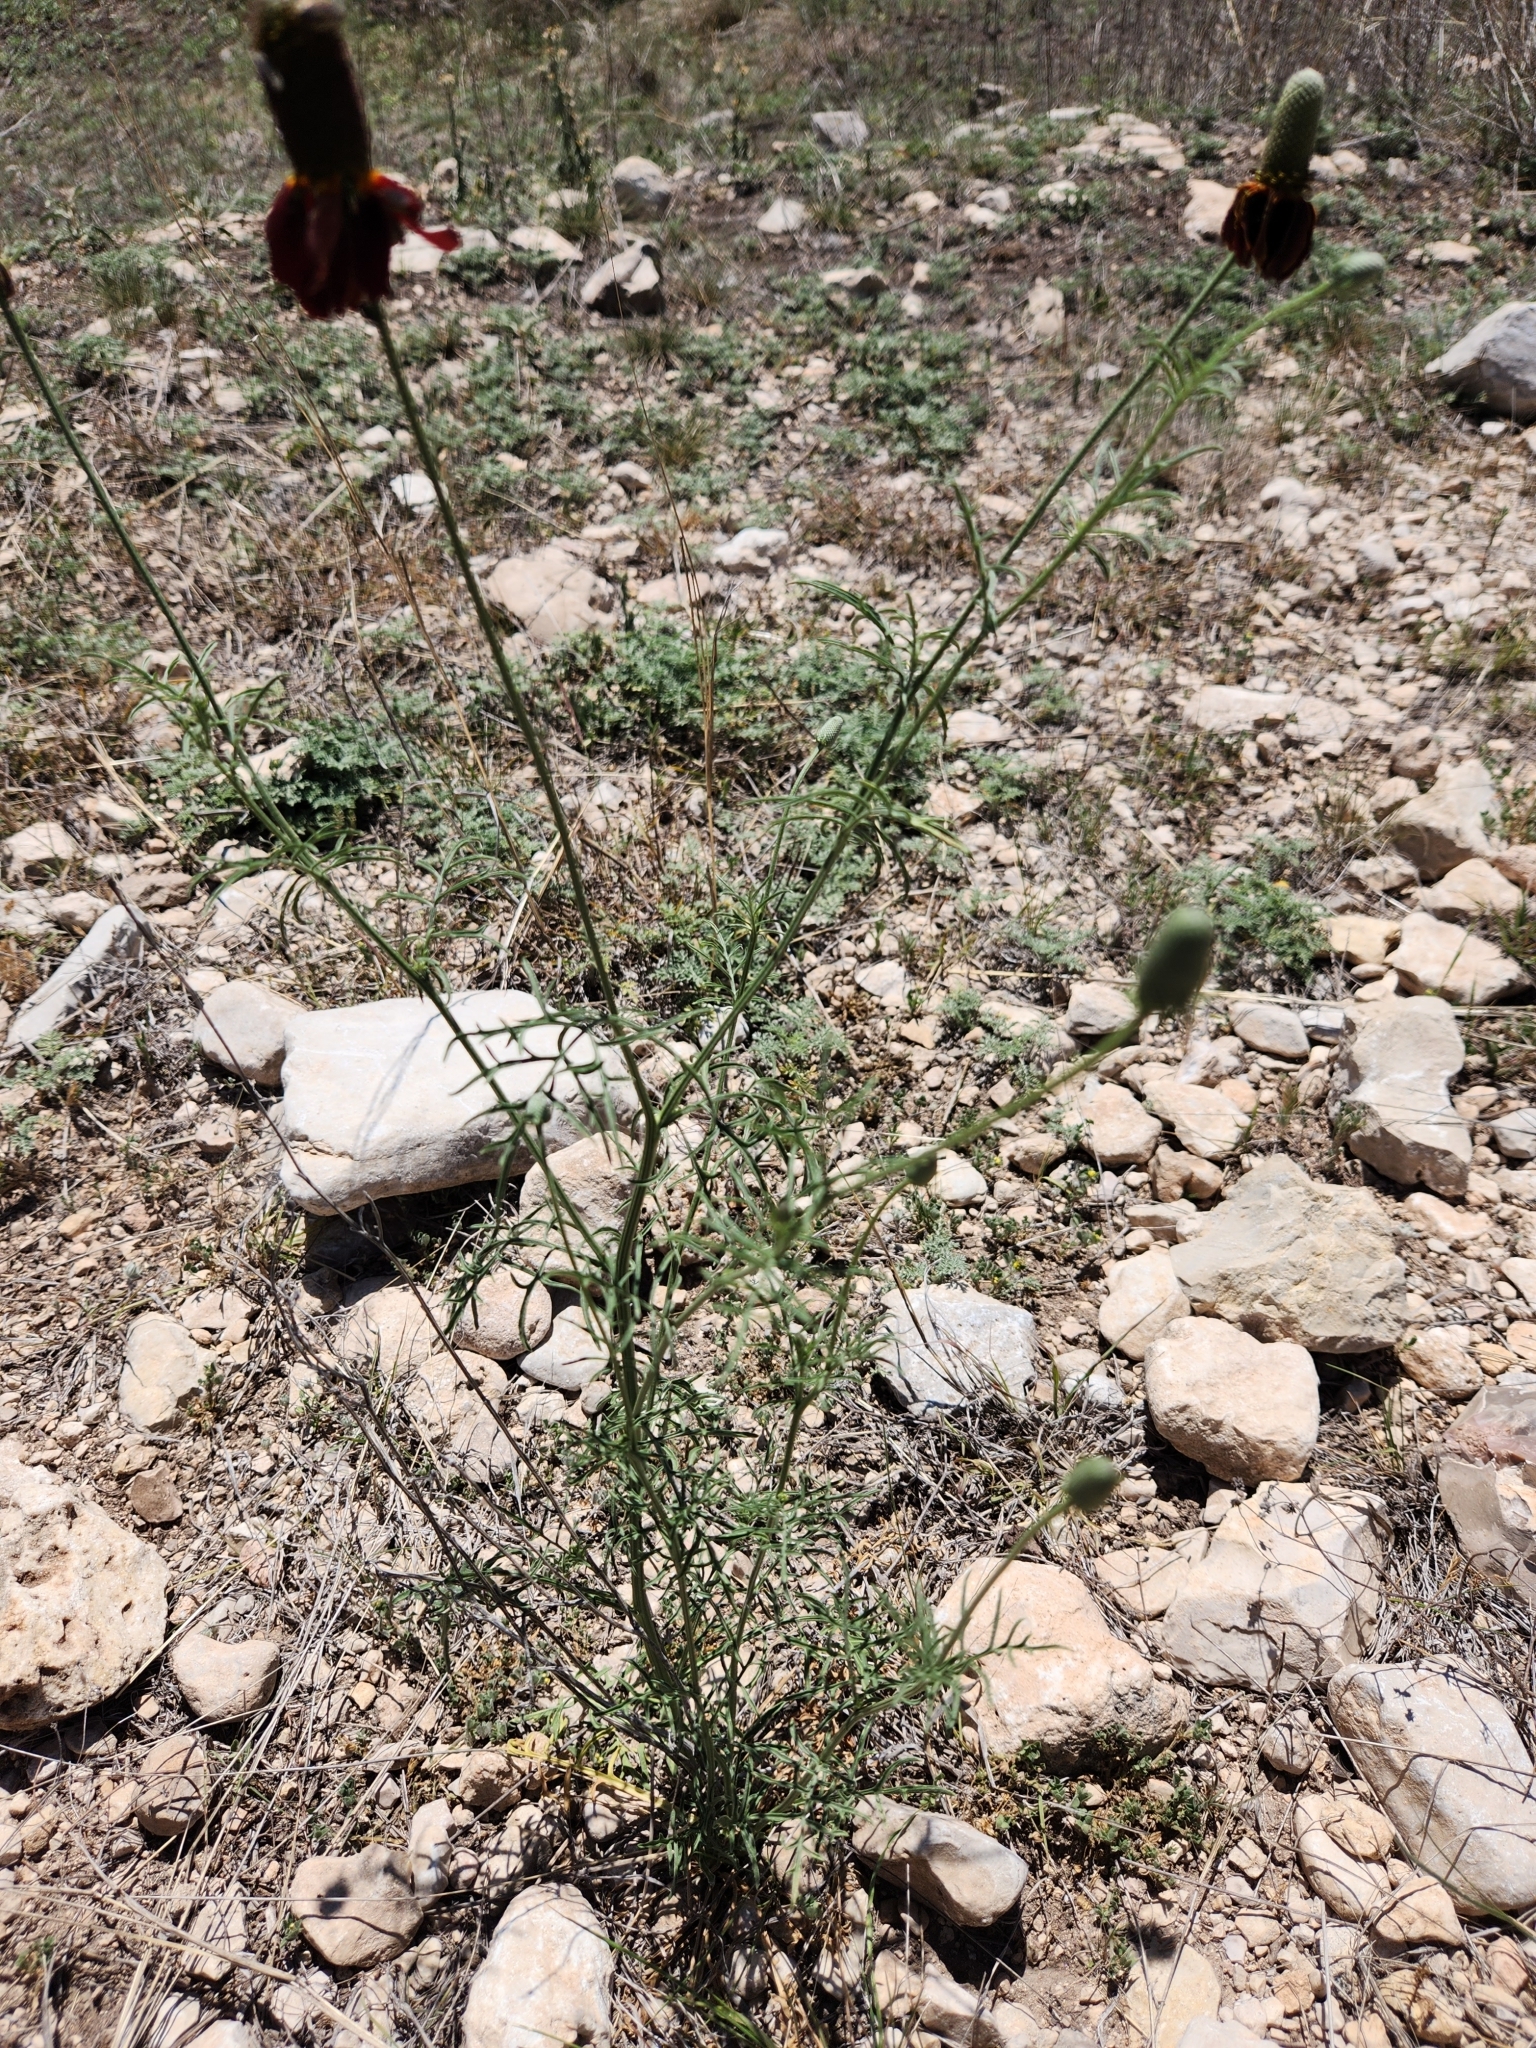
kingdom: Plantae
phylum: Tracheophyta
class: Magnoliopsida
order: Asterales
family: Asteraceae
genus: Ratibida
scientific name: Ratibida columnifera
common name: Prairie coneflower
